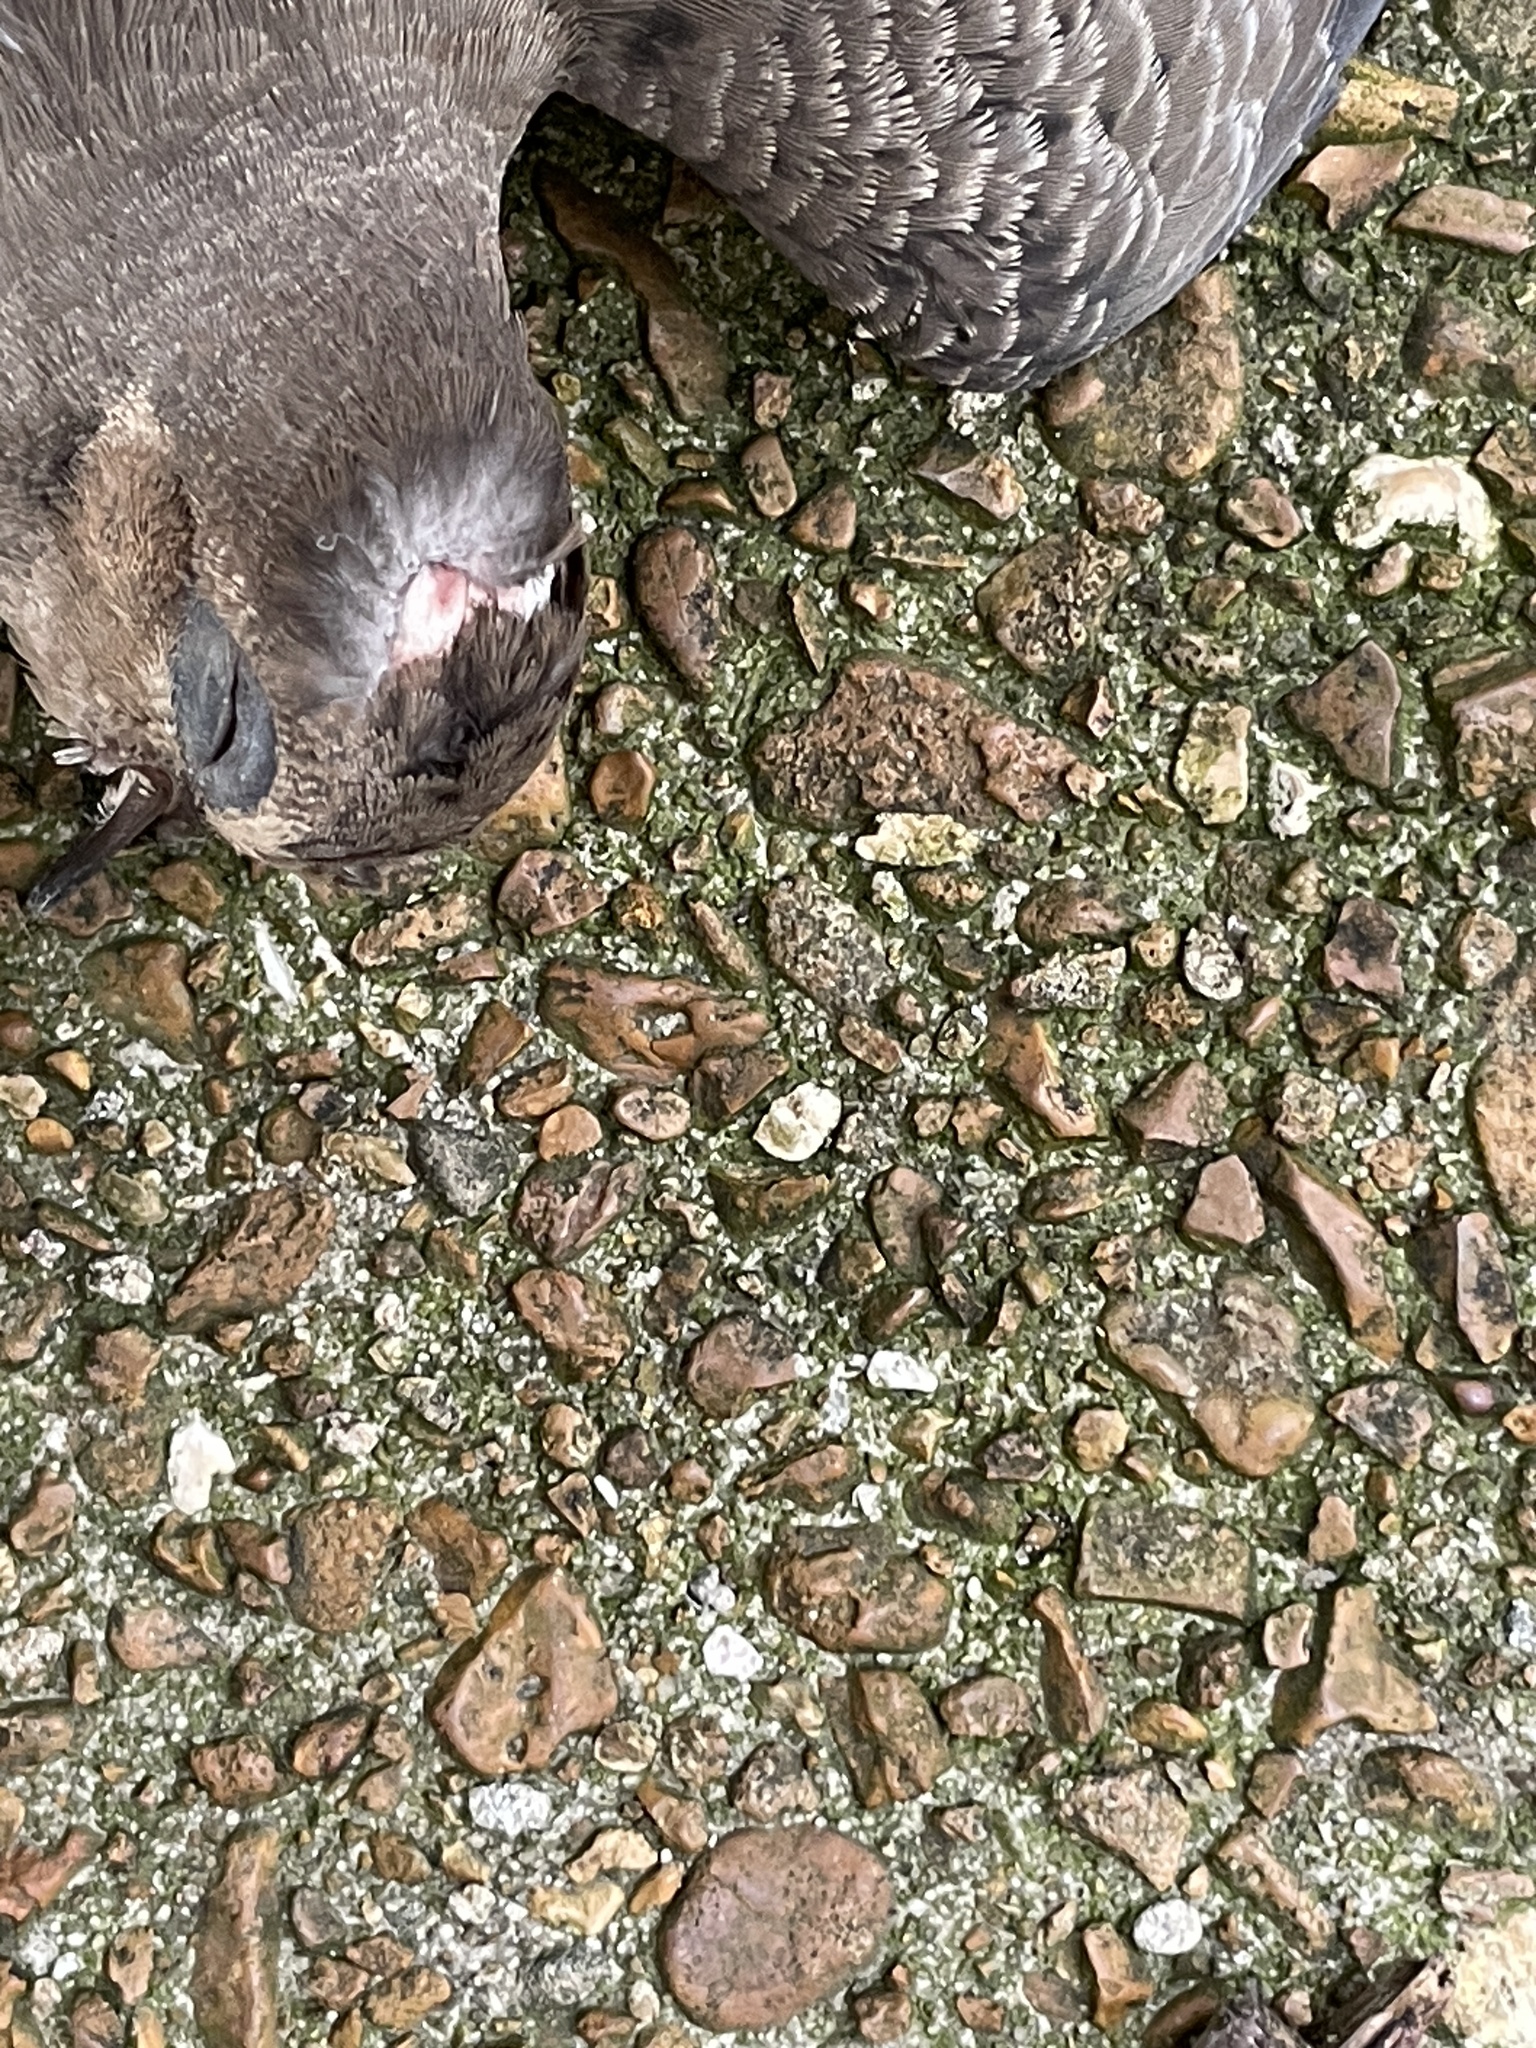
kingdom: Animalia
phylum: Chordata
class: Aves
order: Columbiformes
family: Columbidae
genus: Zenaida
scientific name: Zenaida macroura
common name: Mourning dove
